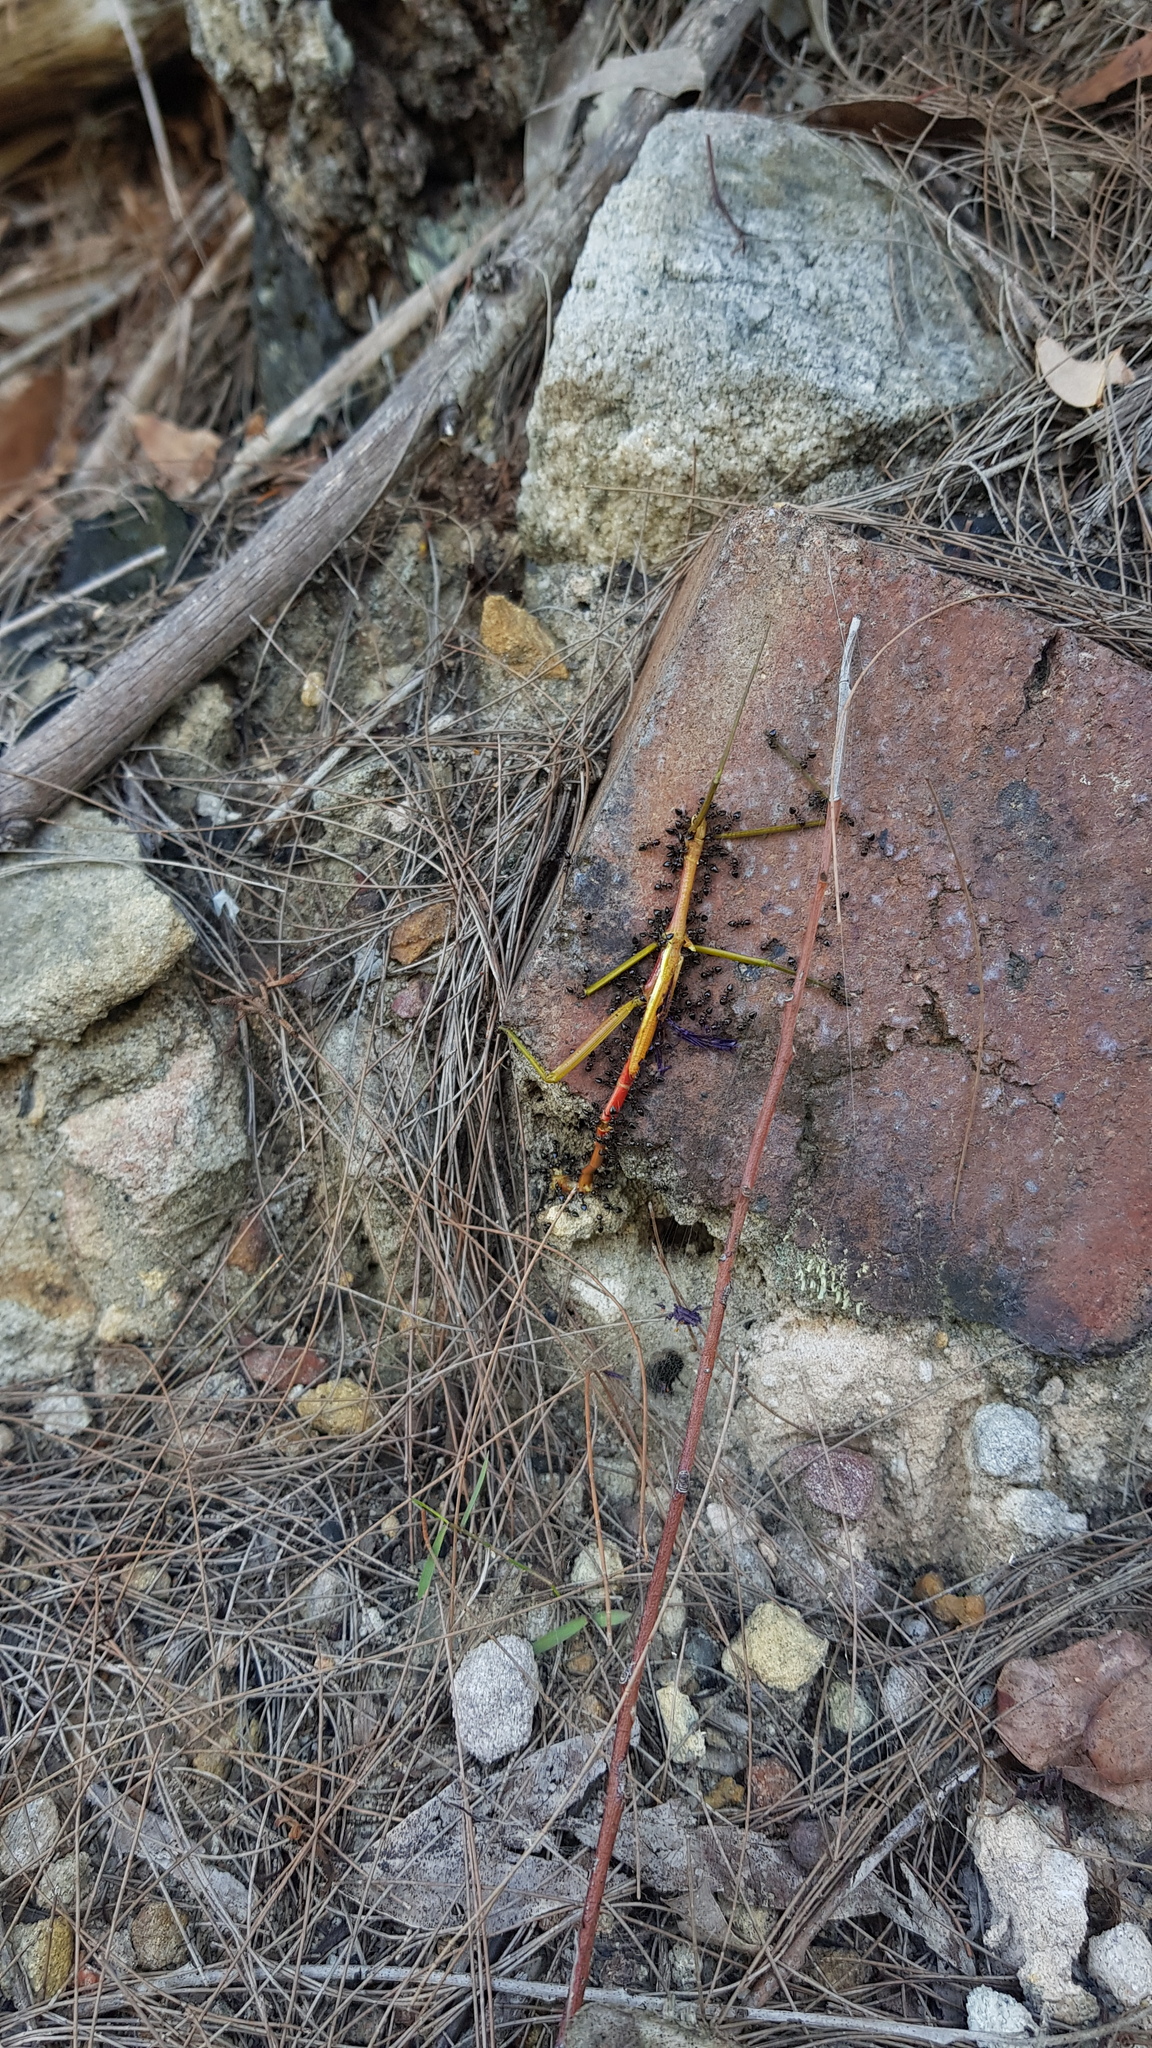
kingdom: Animalia
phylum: Arthropoda
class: Insecta
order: Phasmida
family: Phasmatidae
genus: Didymuria
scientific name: Didymuria violescens
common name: Spur-legged stick-insect
